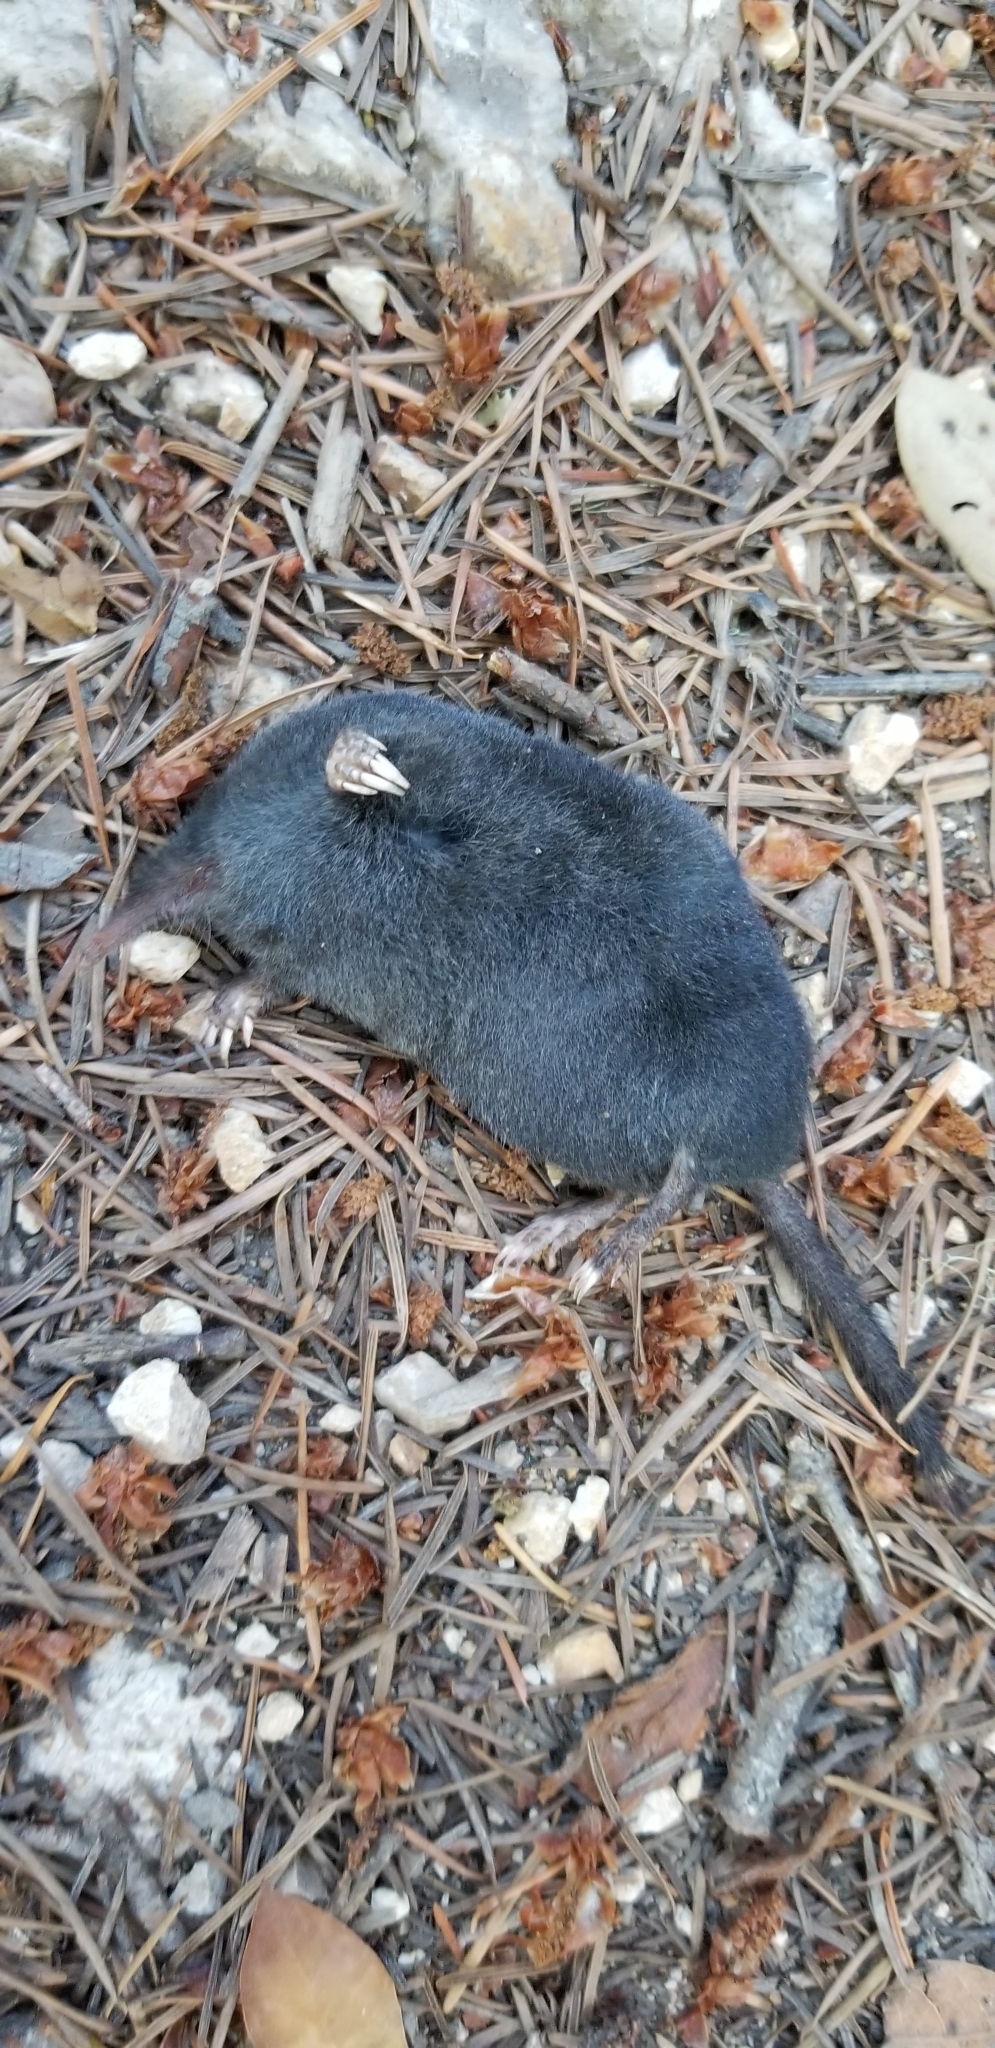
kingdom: Animalia
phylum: Chordata
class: Mammalia
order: Soricomorpha
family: Talpidae
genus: Neurotrichus
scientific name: Neurotrichus gibbsii
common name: American shrew mole
